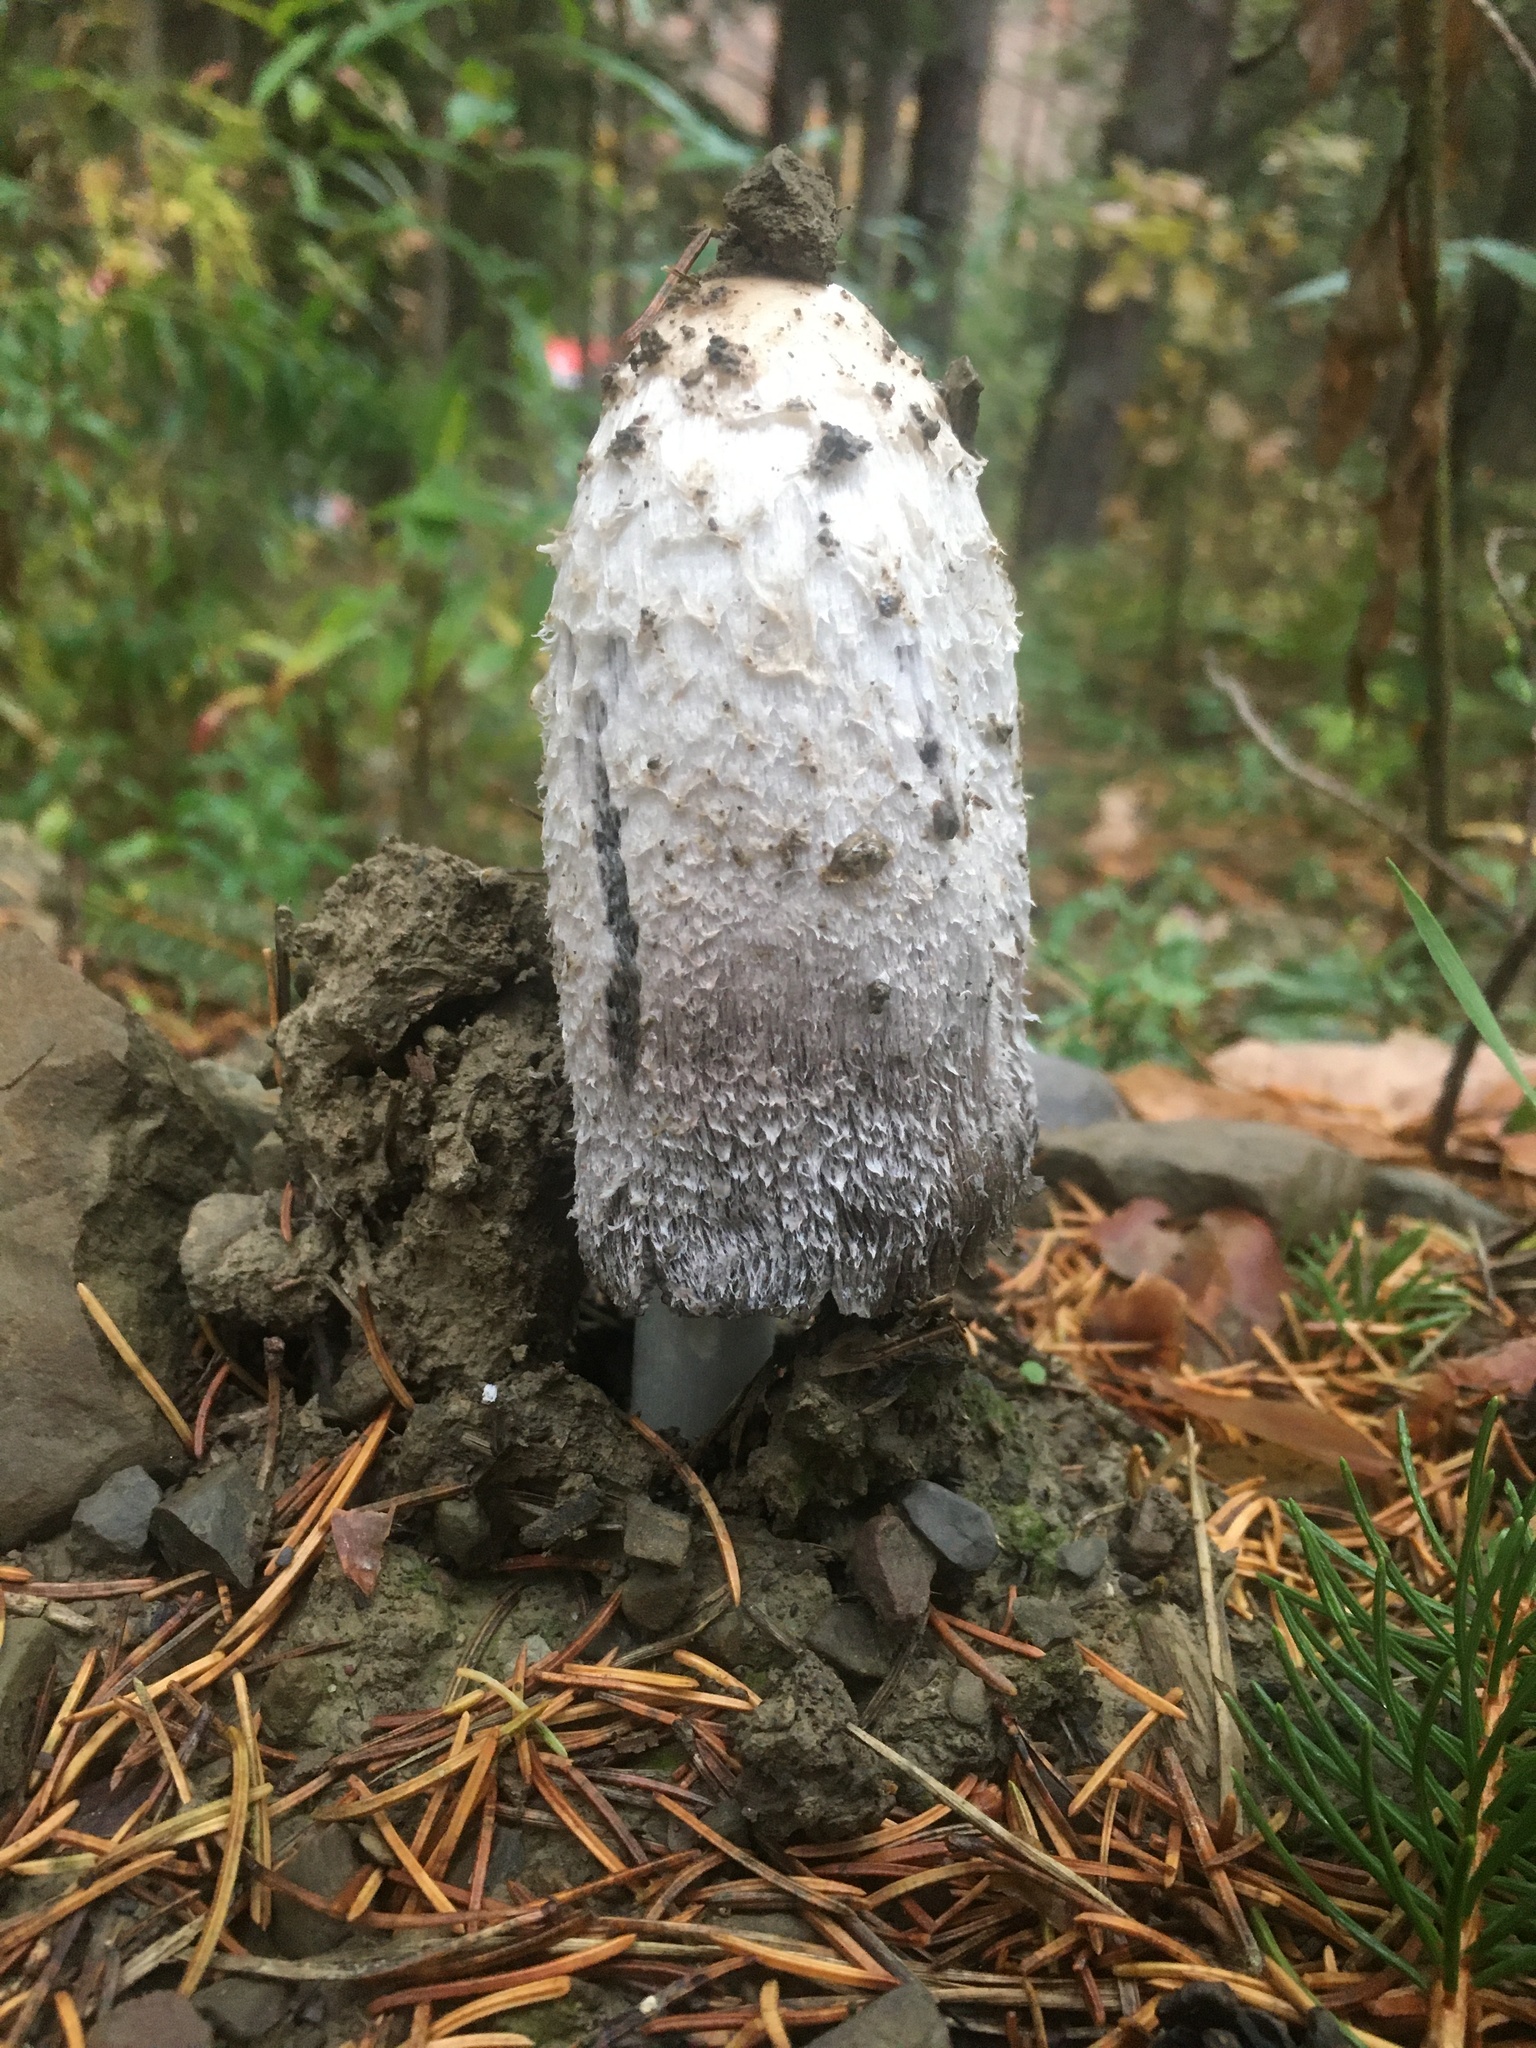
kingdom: Fungi
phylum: Basidiomycota
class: Agaricomycetes
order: Agaricales
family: Agaricaceae
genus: Coprinus
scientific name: Coprinus comatus
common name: Lawyer's wig
